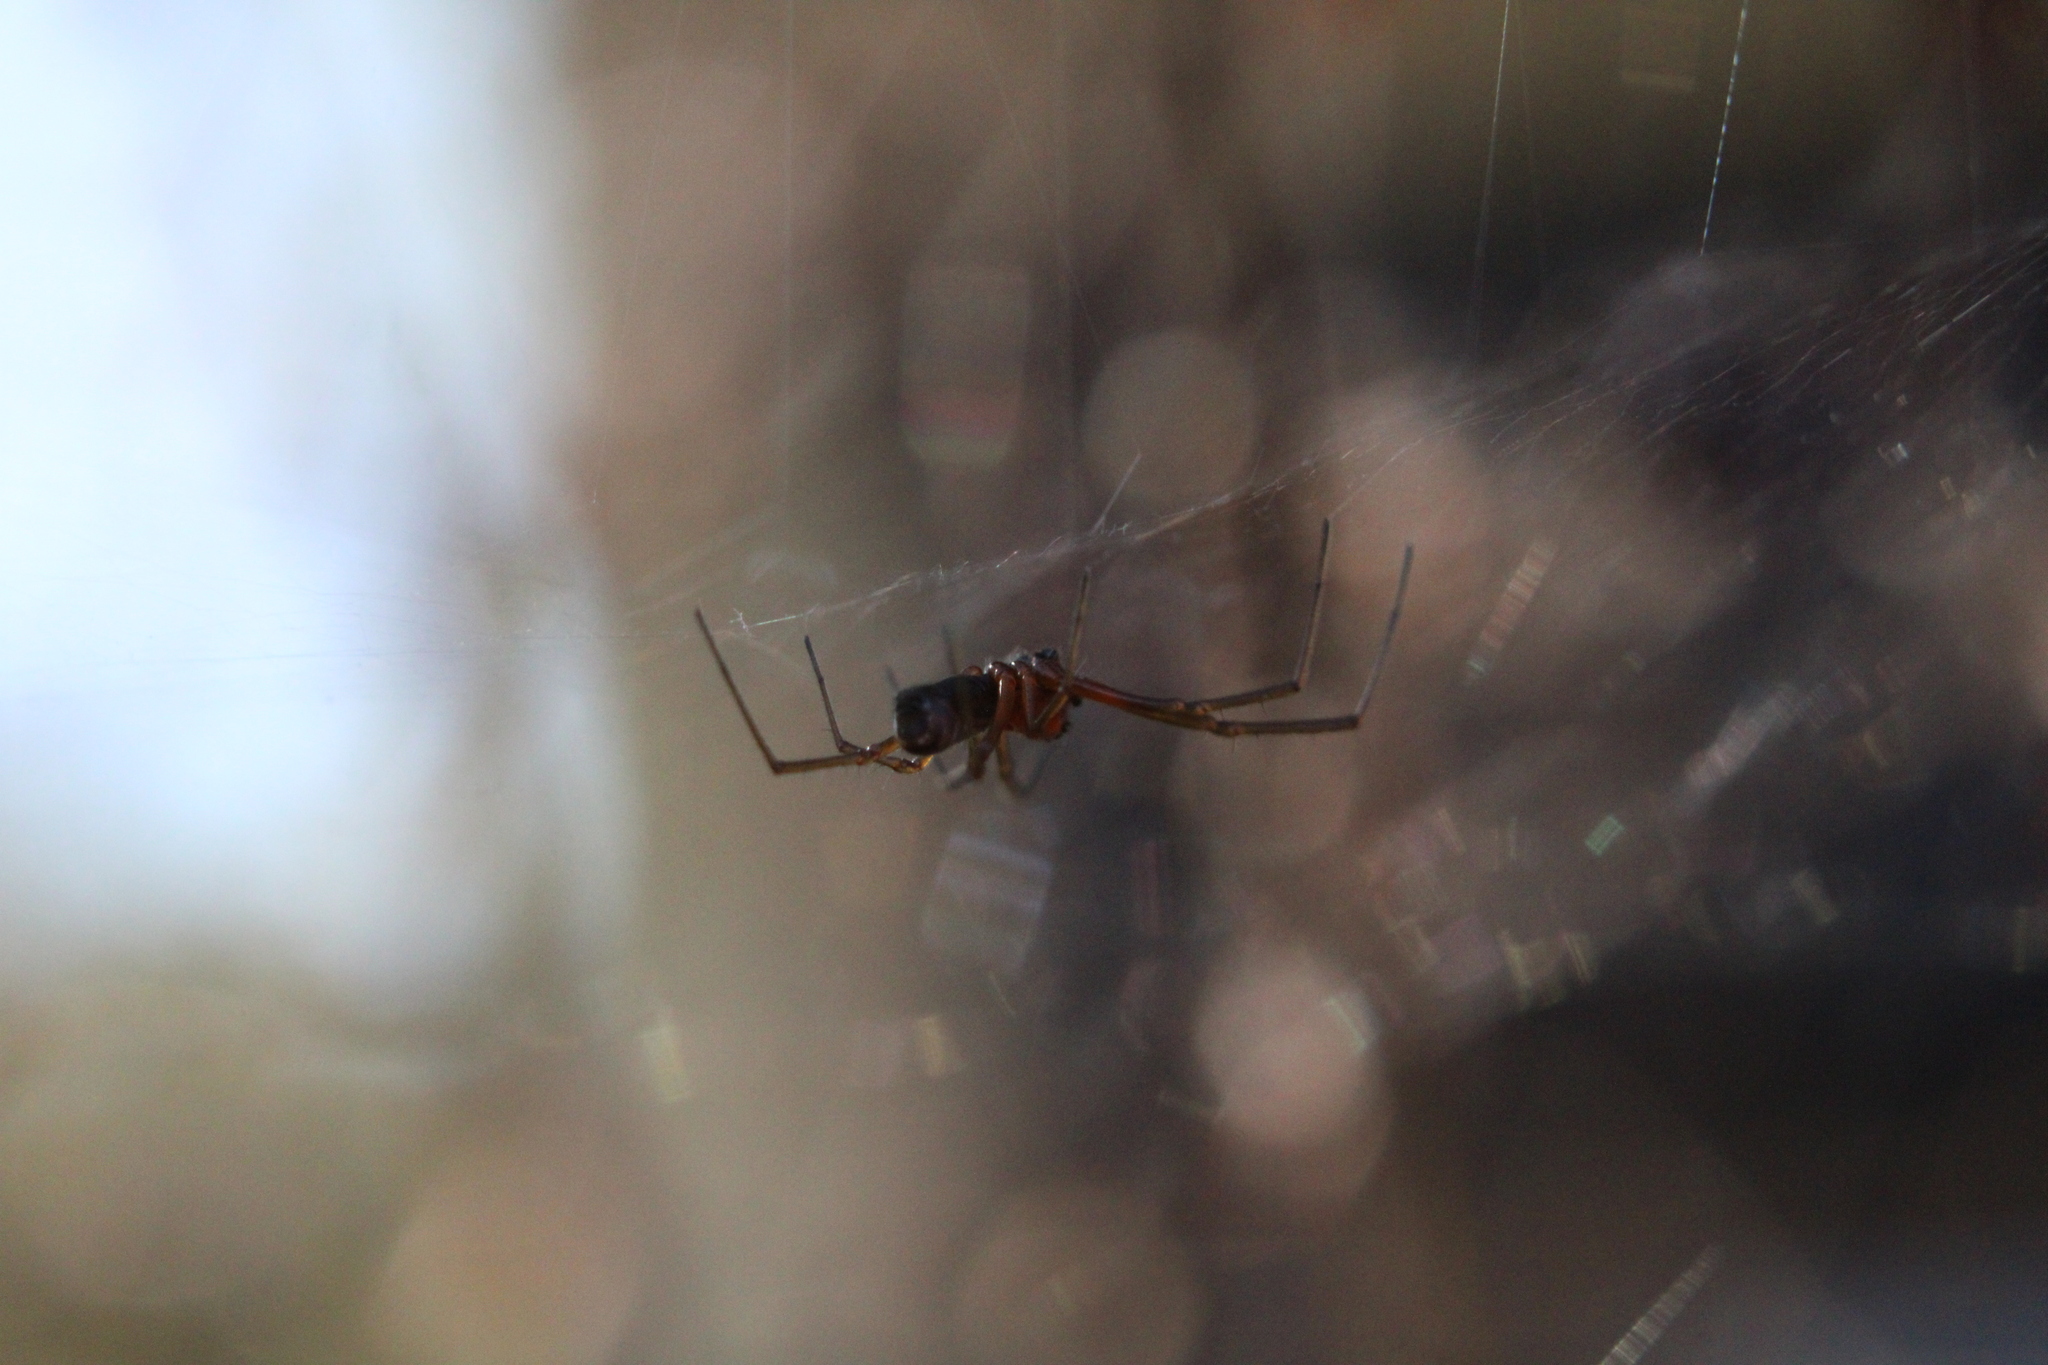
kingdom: Animalia
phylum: Arthropoda
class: Arachnida
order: Araneae
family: Linyphiidae
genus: Frontinella
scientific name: Frontinella pyramitela
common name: Bowl-and-doily spider
